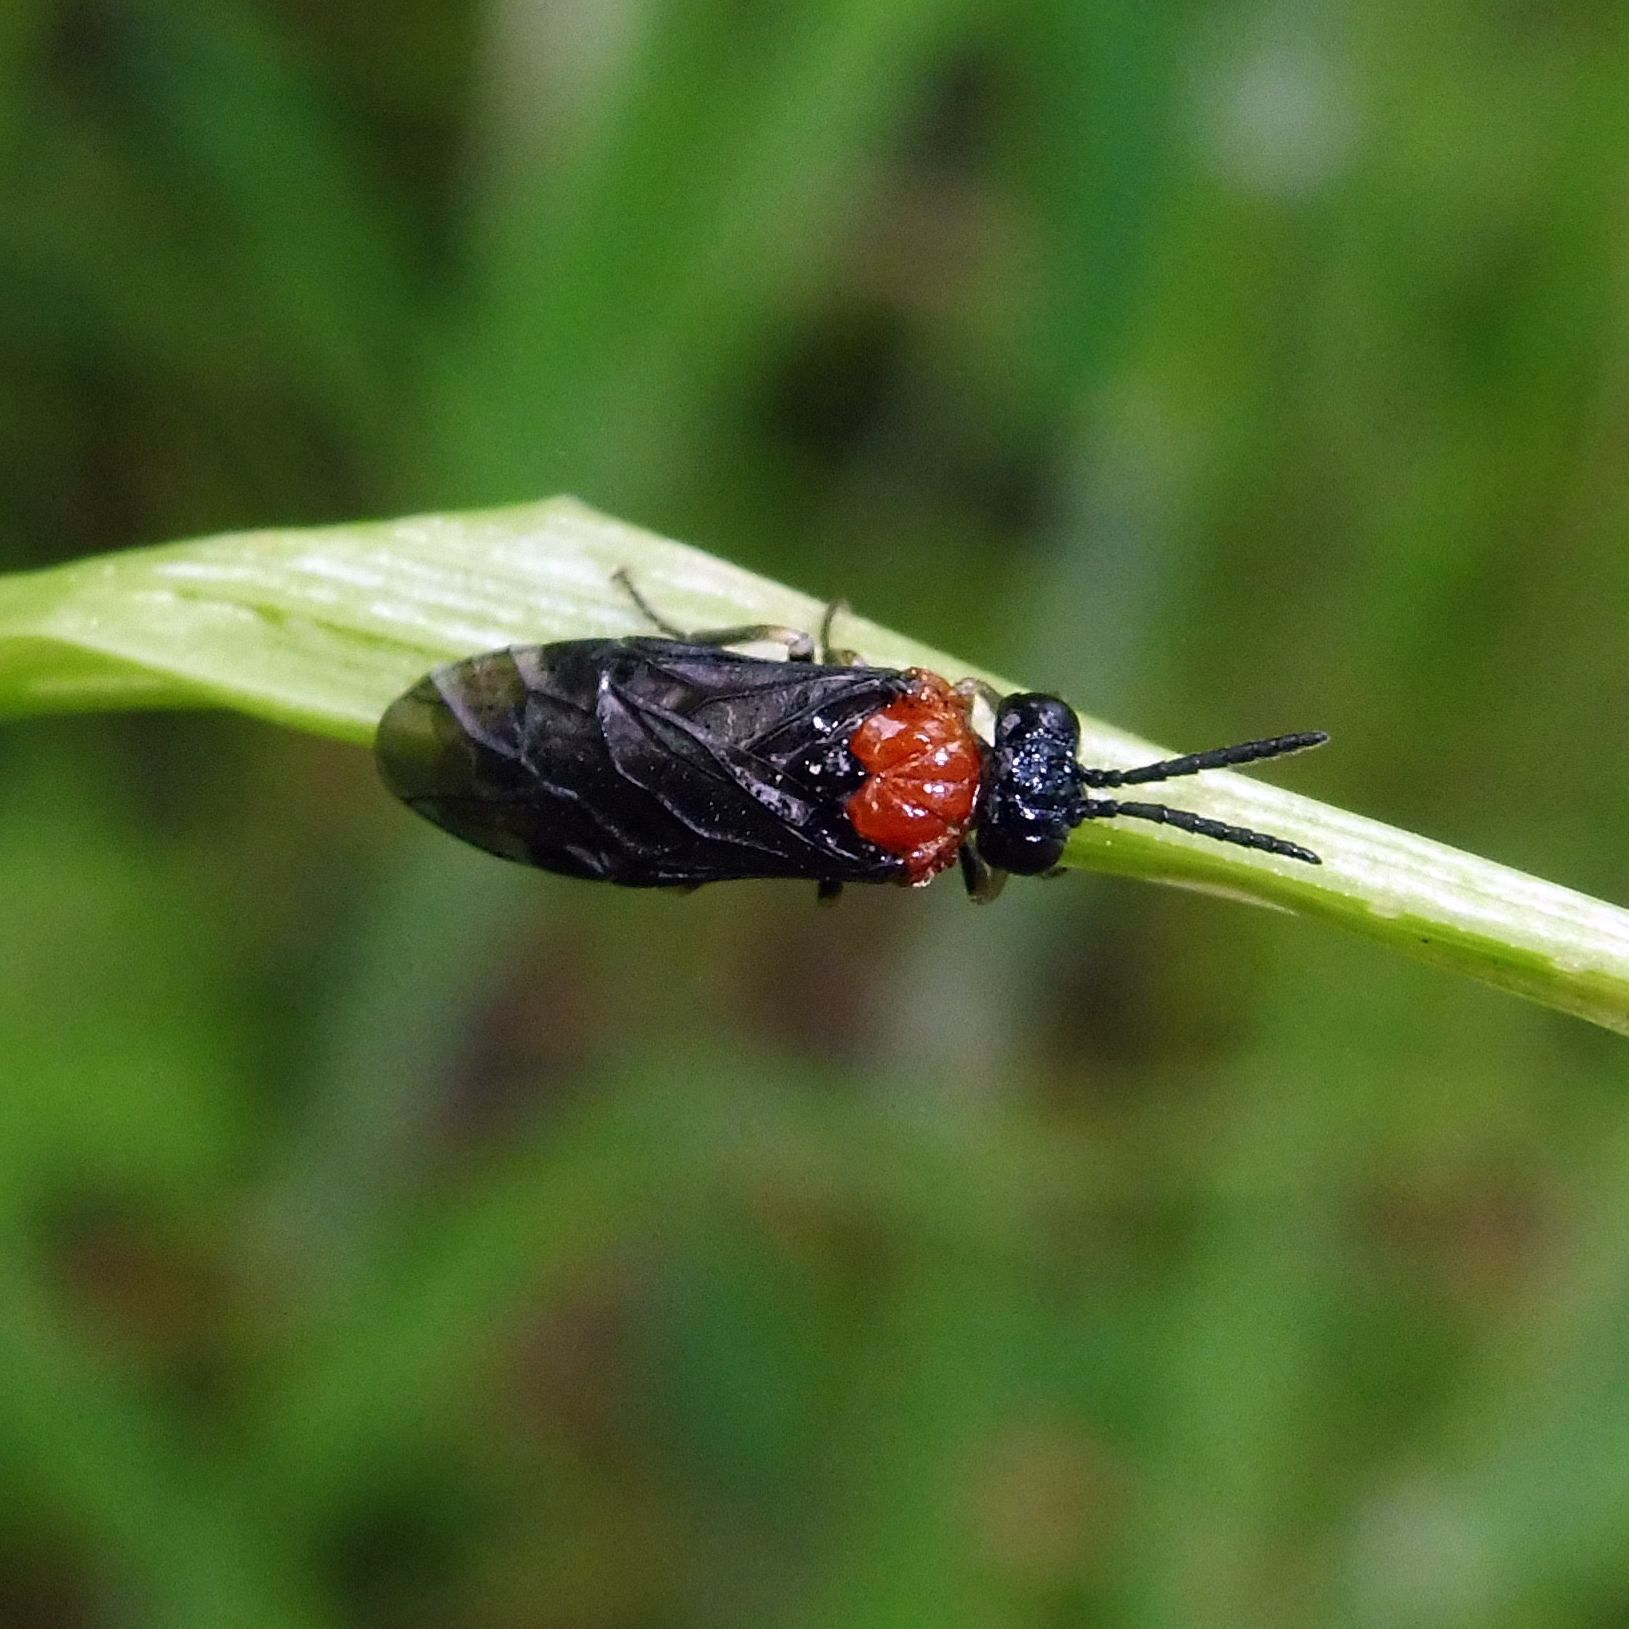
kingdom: Animalia
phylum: Arthropoda
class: Insecta
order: Hymenoptera
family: Tenthredinidae
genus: Eutomostethus
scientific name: Eutomostethus ephippium
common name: Tenthredid wasp
